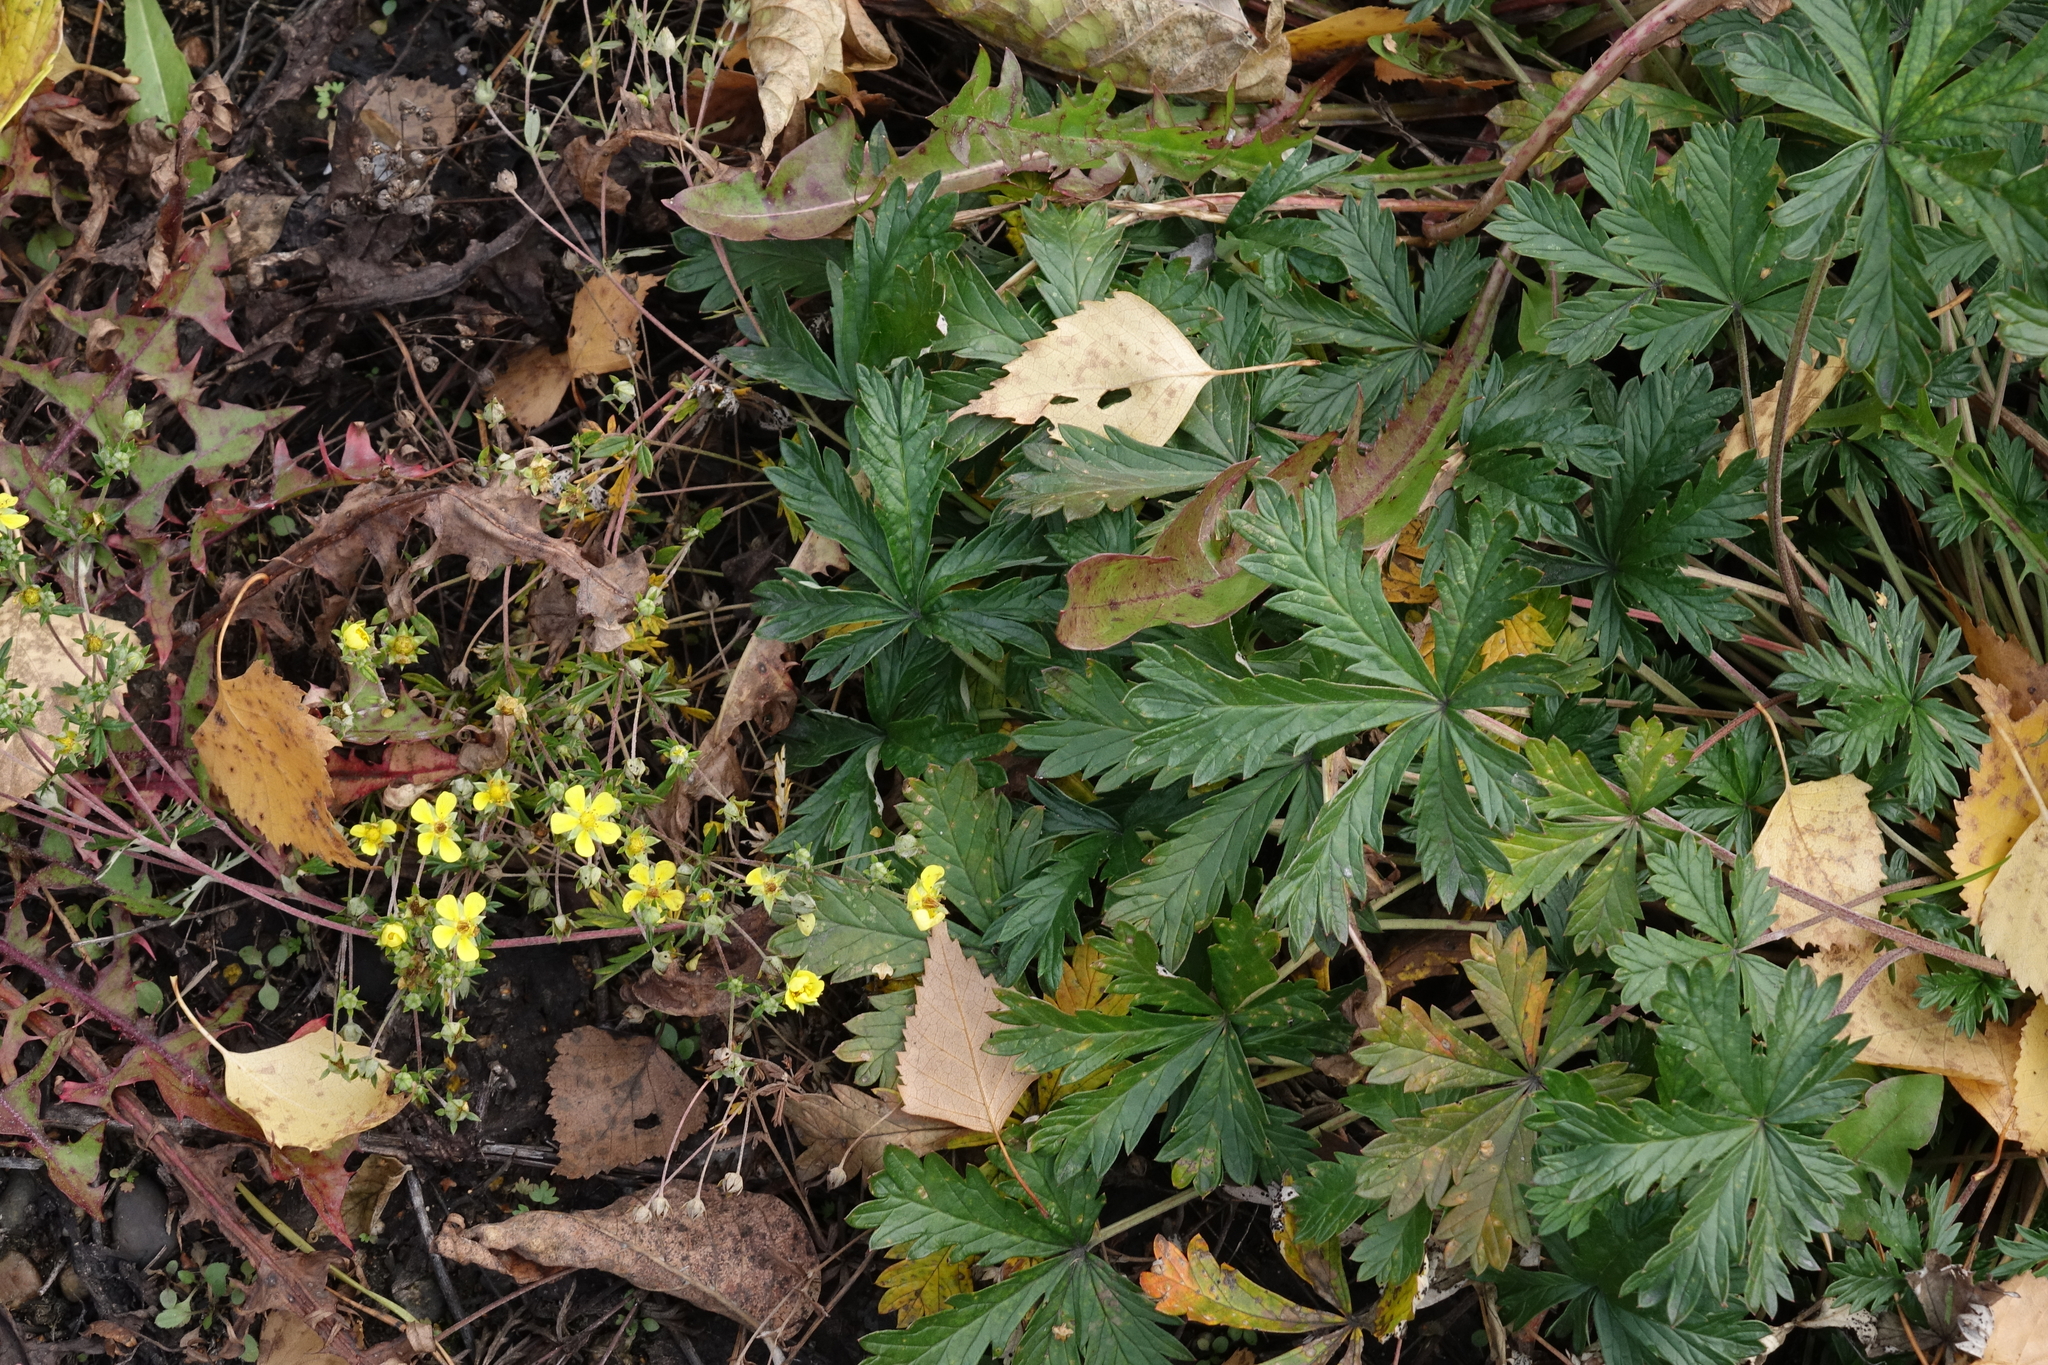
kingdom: Plantae
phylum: Tracheophyta
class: Magnoliopsida
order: Rosales
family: Rosaceae
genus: Potentilla
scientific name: Potentilla argentea
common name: Hoary cinquefoil
